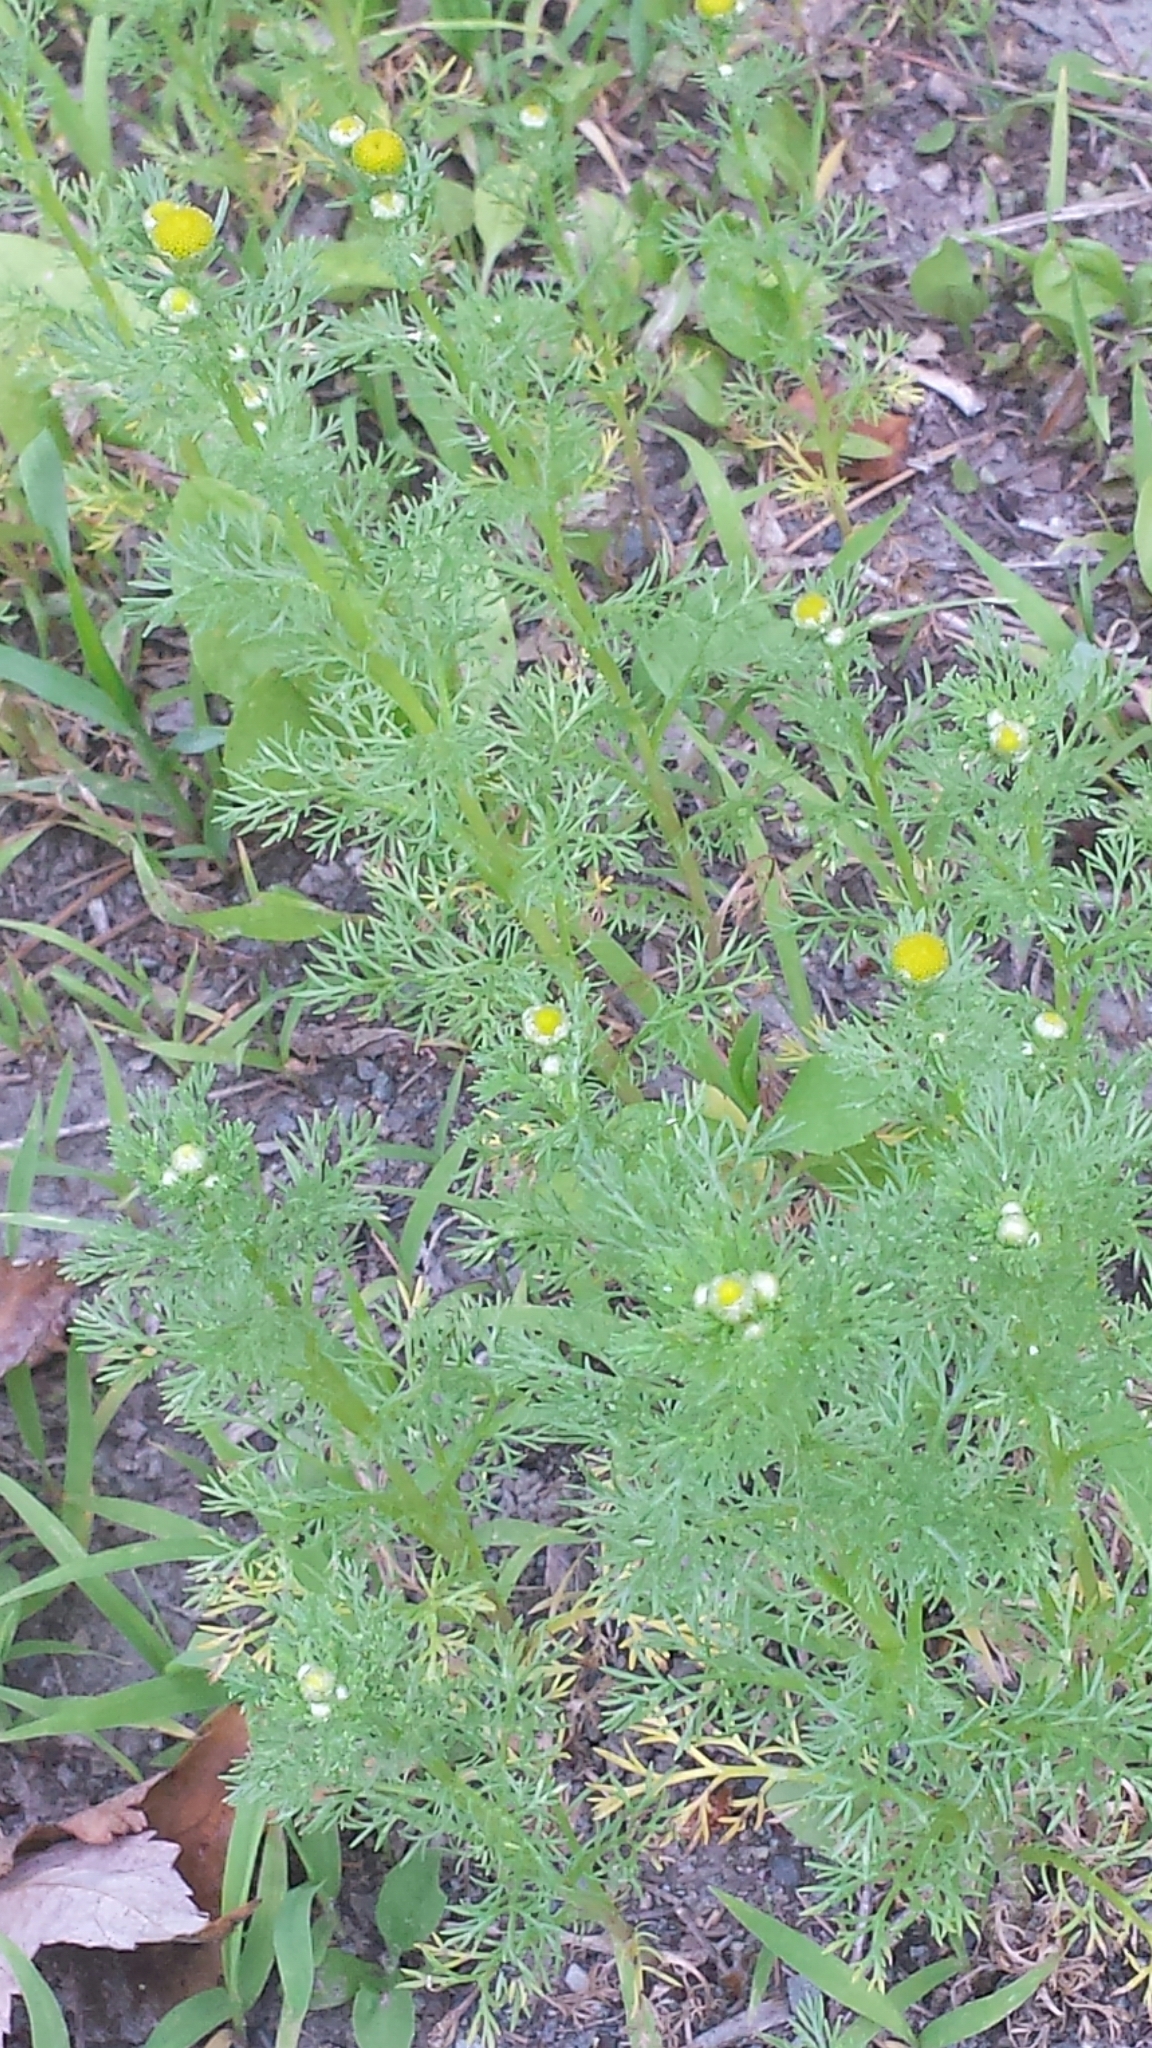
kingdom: Plantae
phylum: Tracheophyta
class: Magnoliopsida
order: Asterales
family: Asteraceae
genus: Matricaria
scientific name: Matricaria discoidea
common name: Disc mayweed
